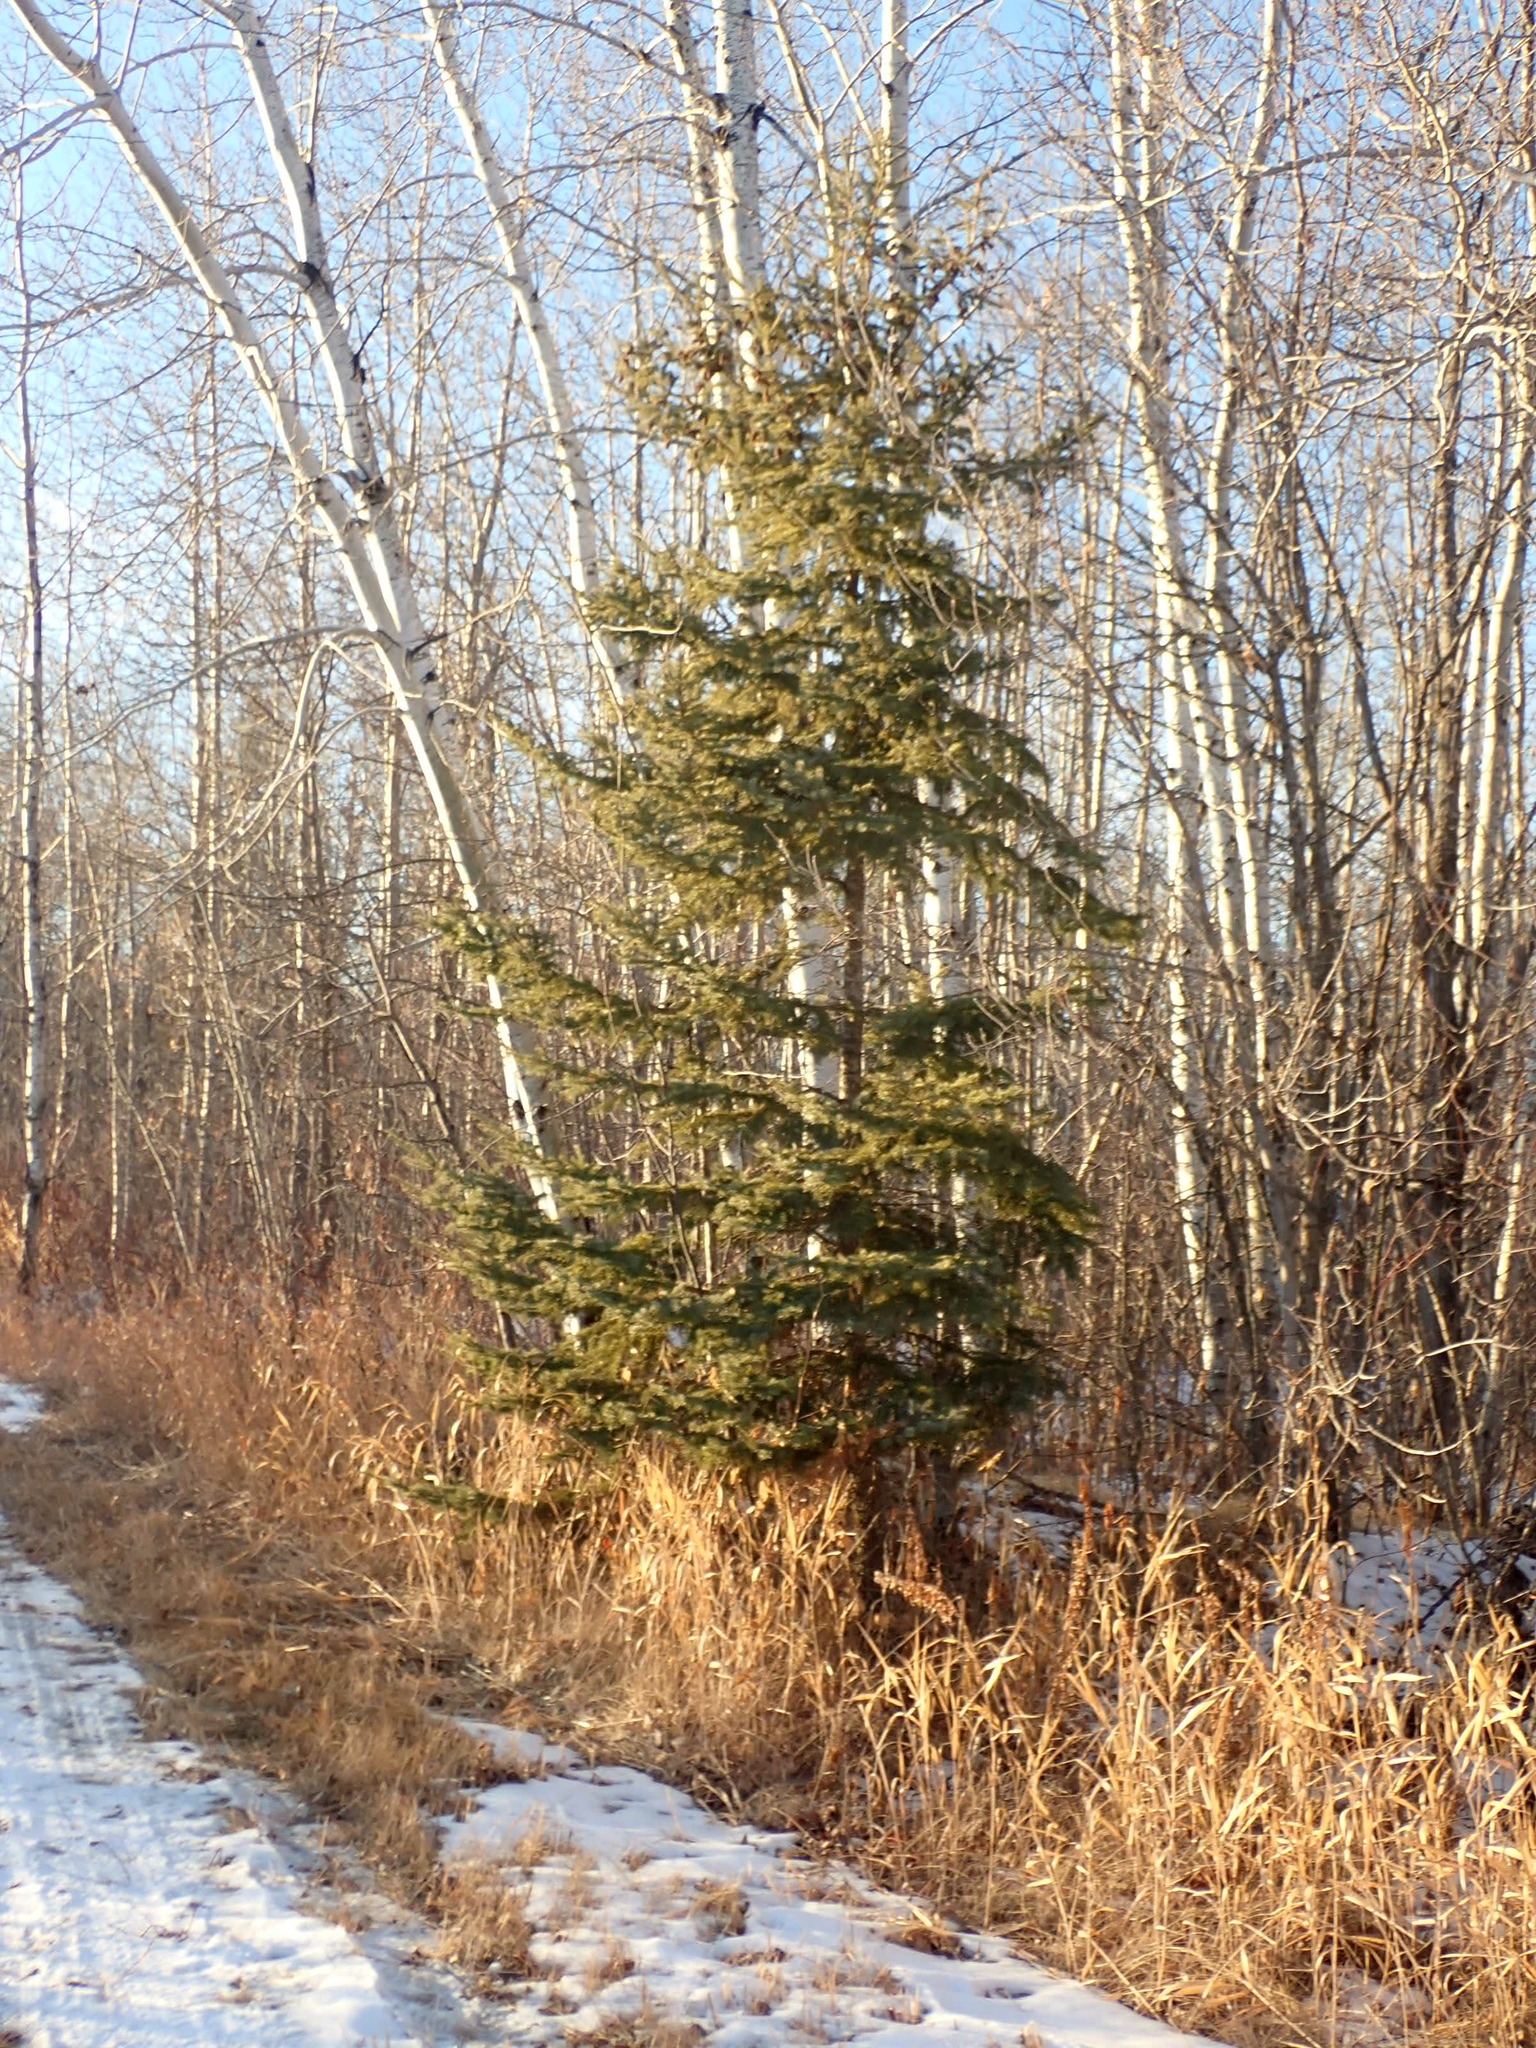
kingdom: Plantae
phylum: Tracheophyta
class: Pinopsida
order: Pinales
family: Pinaceae
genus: Picea
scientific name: Picea glauca
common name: White spruce
